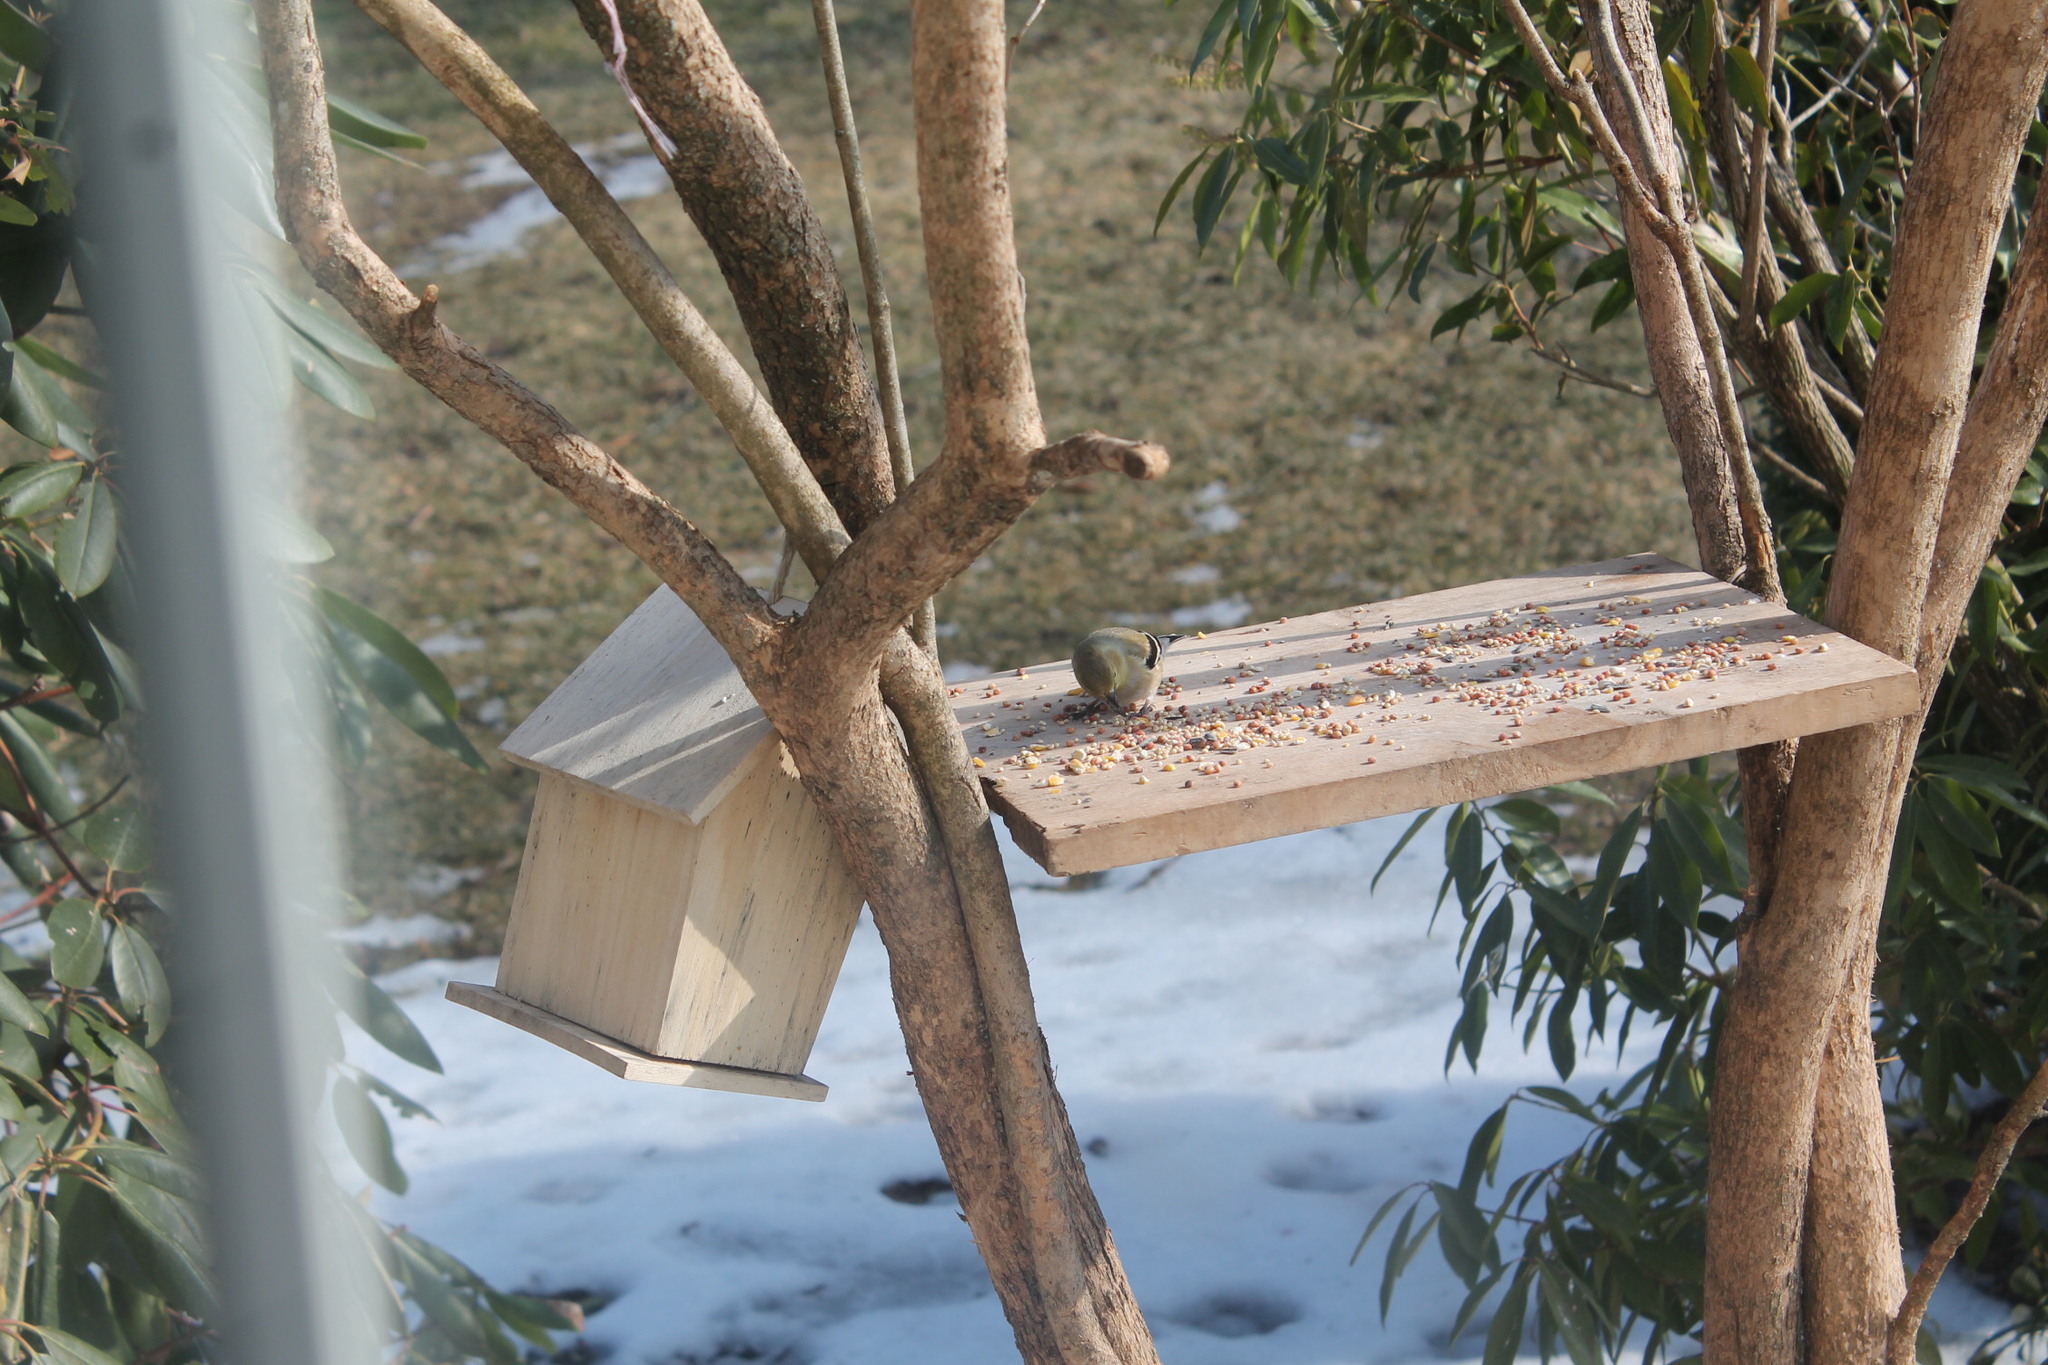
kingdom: Animalia
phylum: Chordata
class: Aves
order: Passeriformes
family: Fringillidae
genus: Spinus
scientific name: Spinus tristis
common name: American goldfinch
